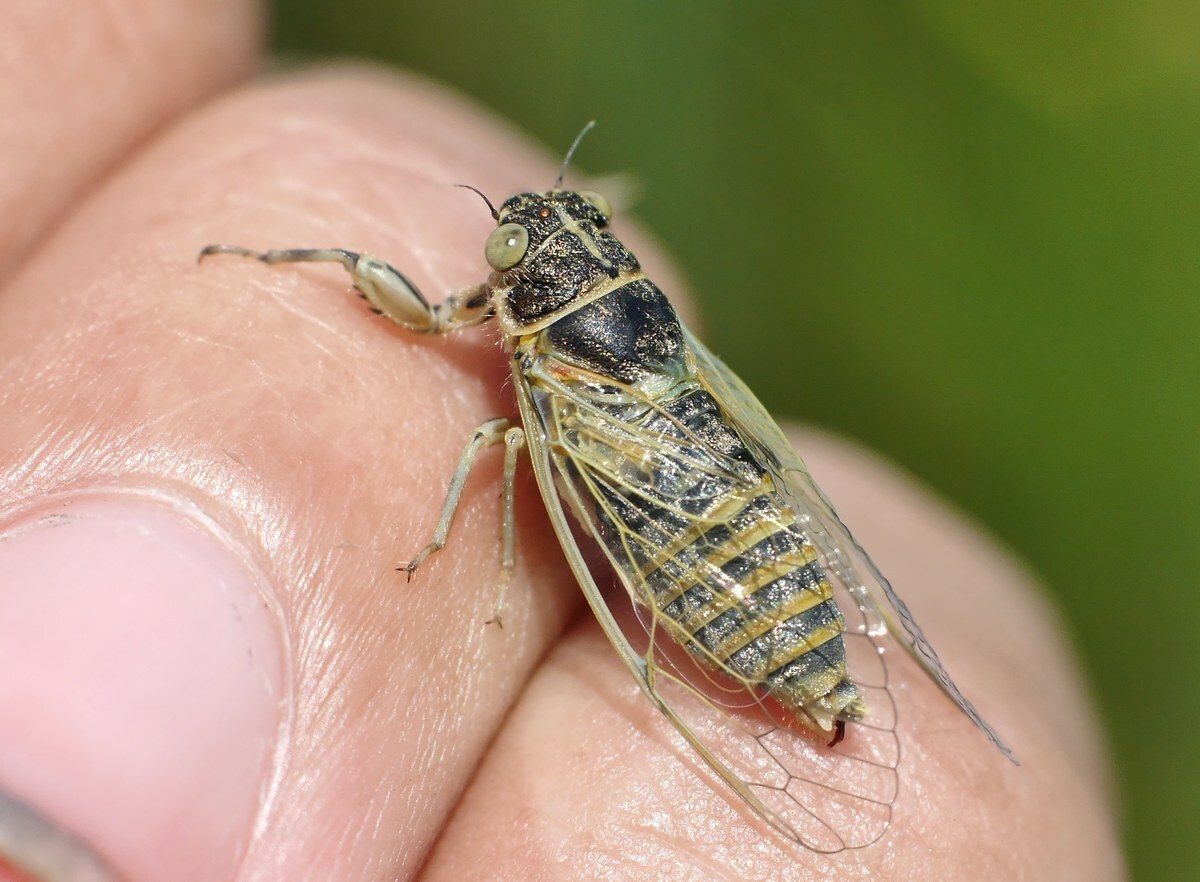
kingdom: Animalia
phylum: Arthropoda
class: Insecta
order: Hemiptera
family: Cicadidae
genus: Oligoglena
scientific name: Oligoglena tibialis
